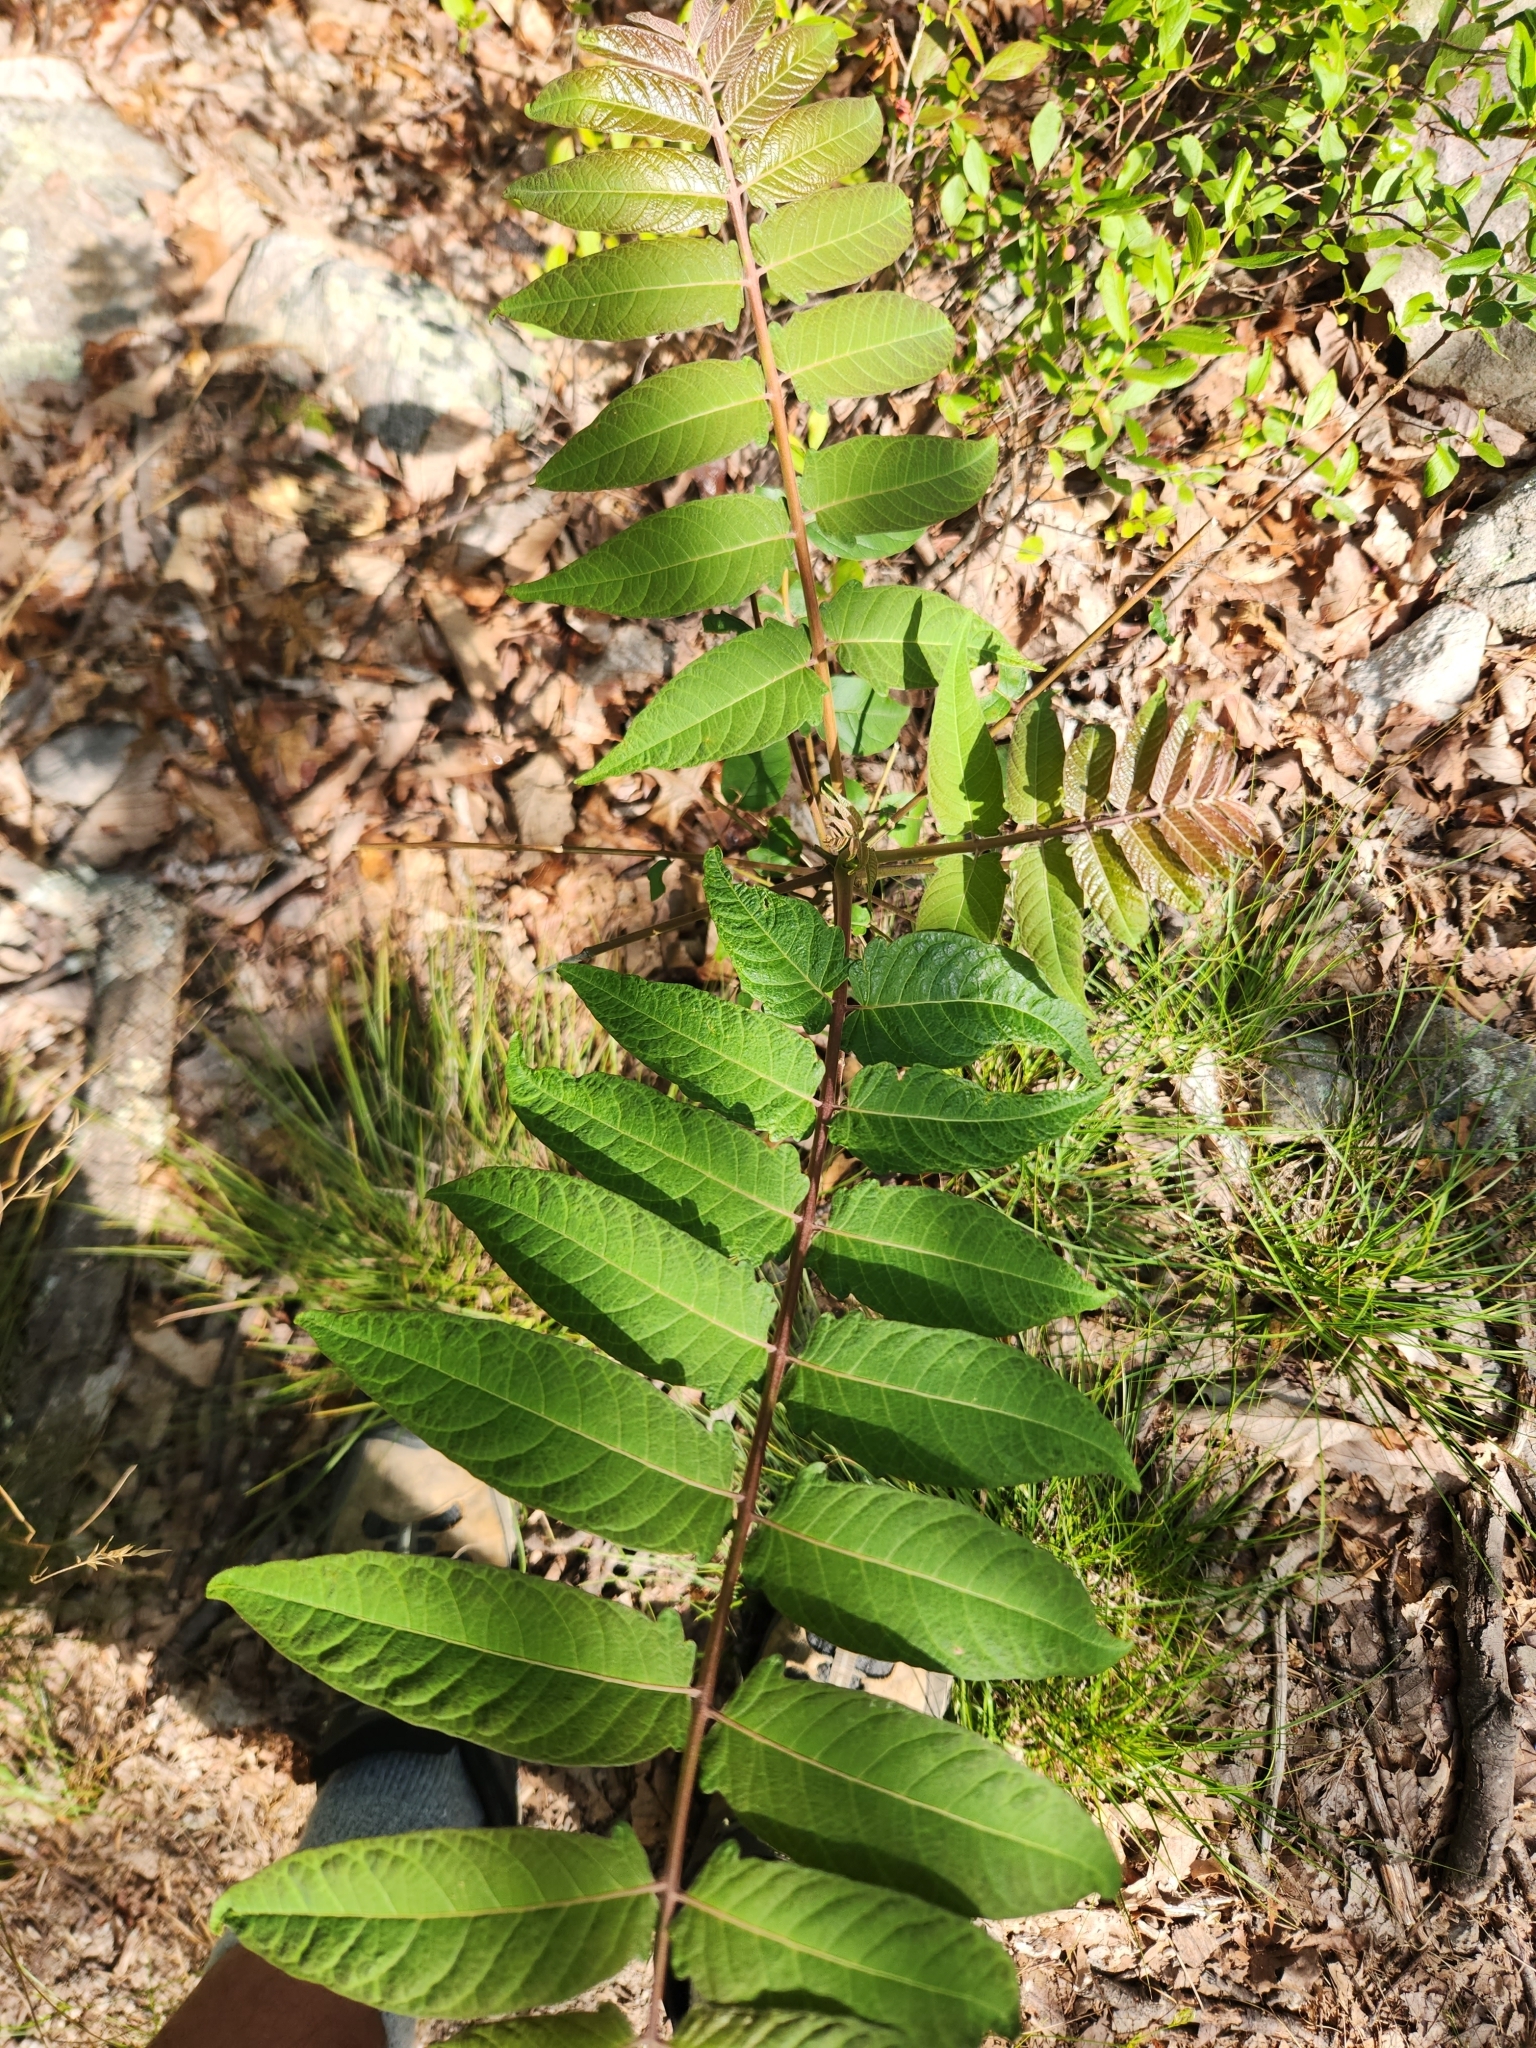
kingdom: Plantae
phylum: Tracheophyta
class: Magnoliopsida
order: Sapindales
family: Simaroubaceae
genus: Ailanthus
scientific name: Ailanthus altissima
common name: Tree-of-heaven
